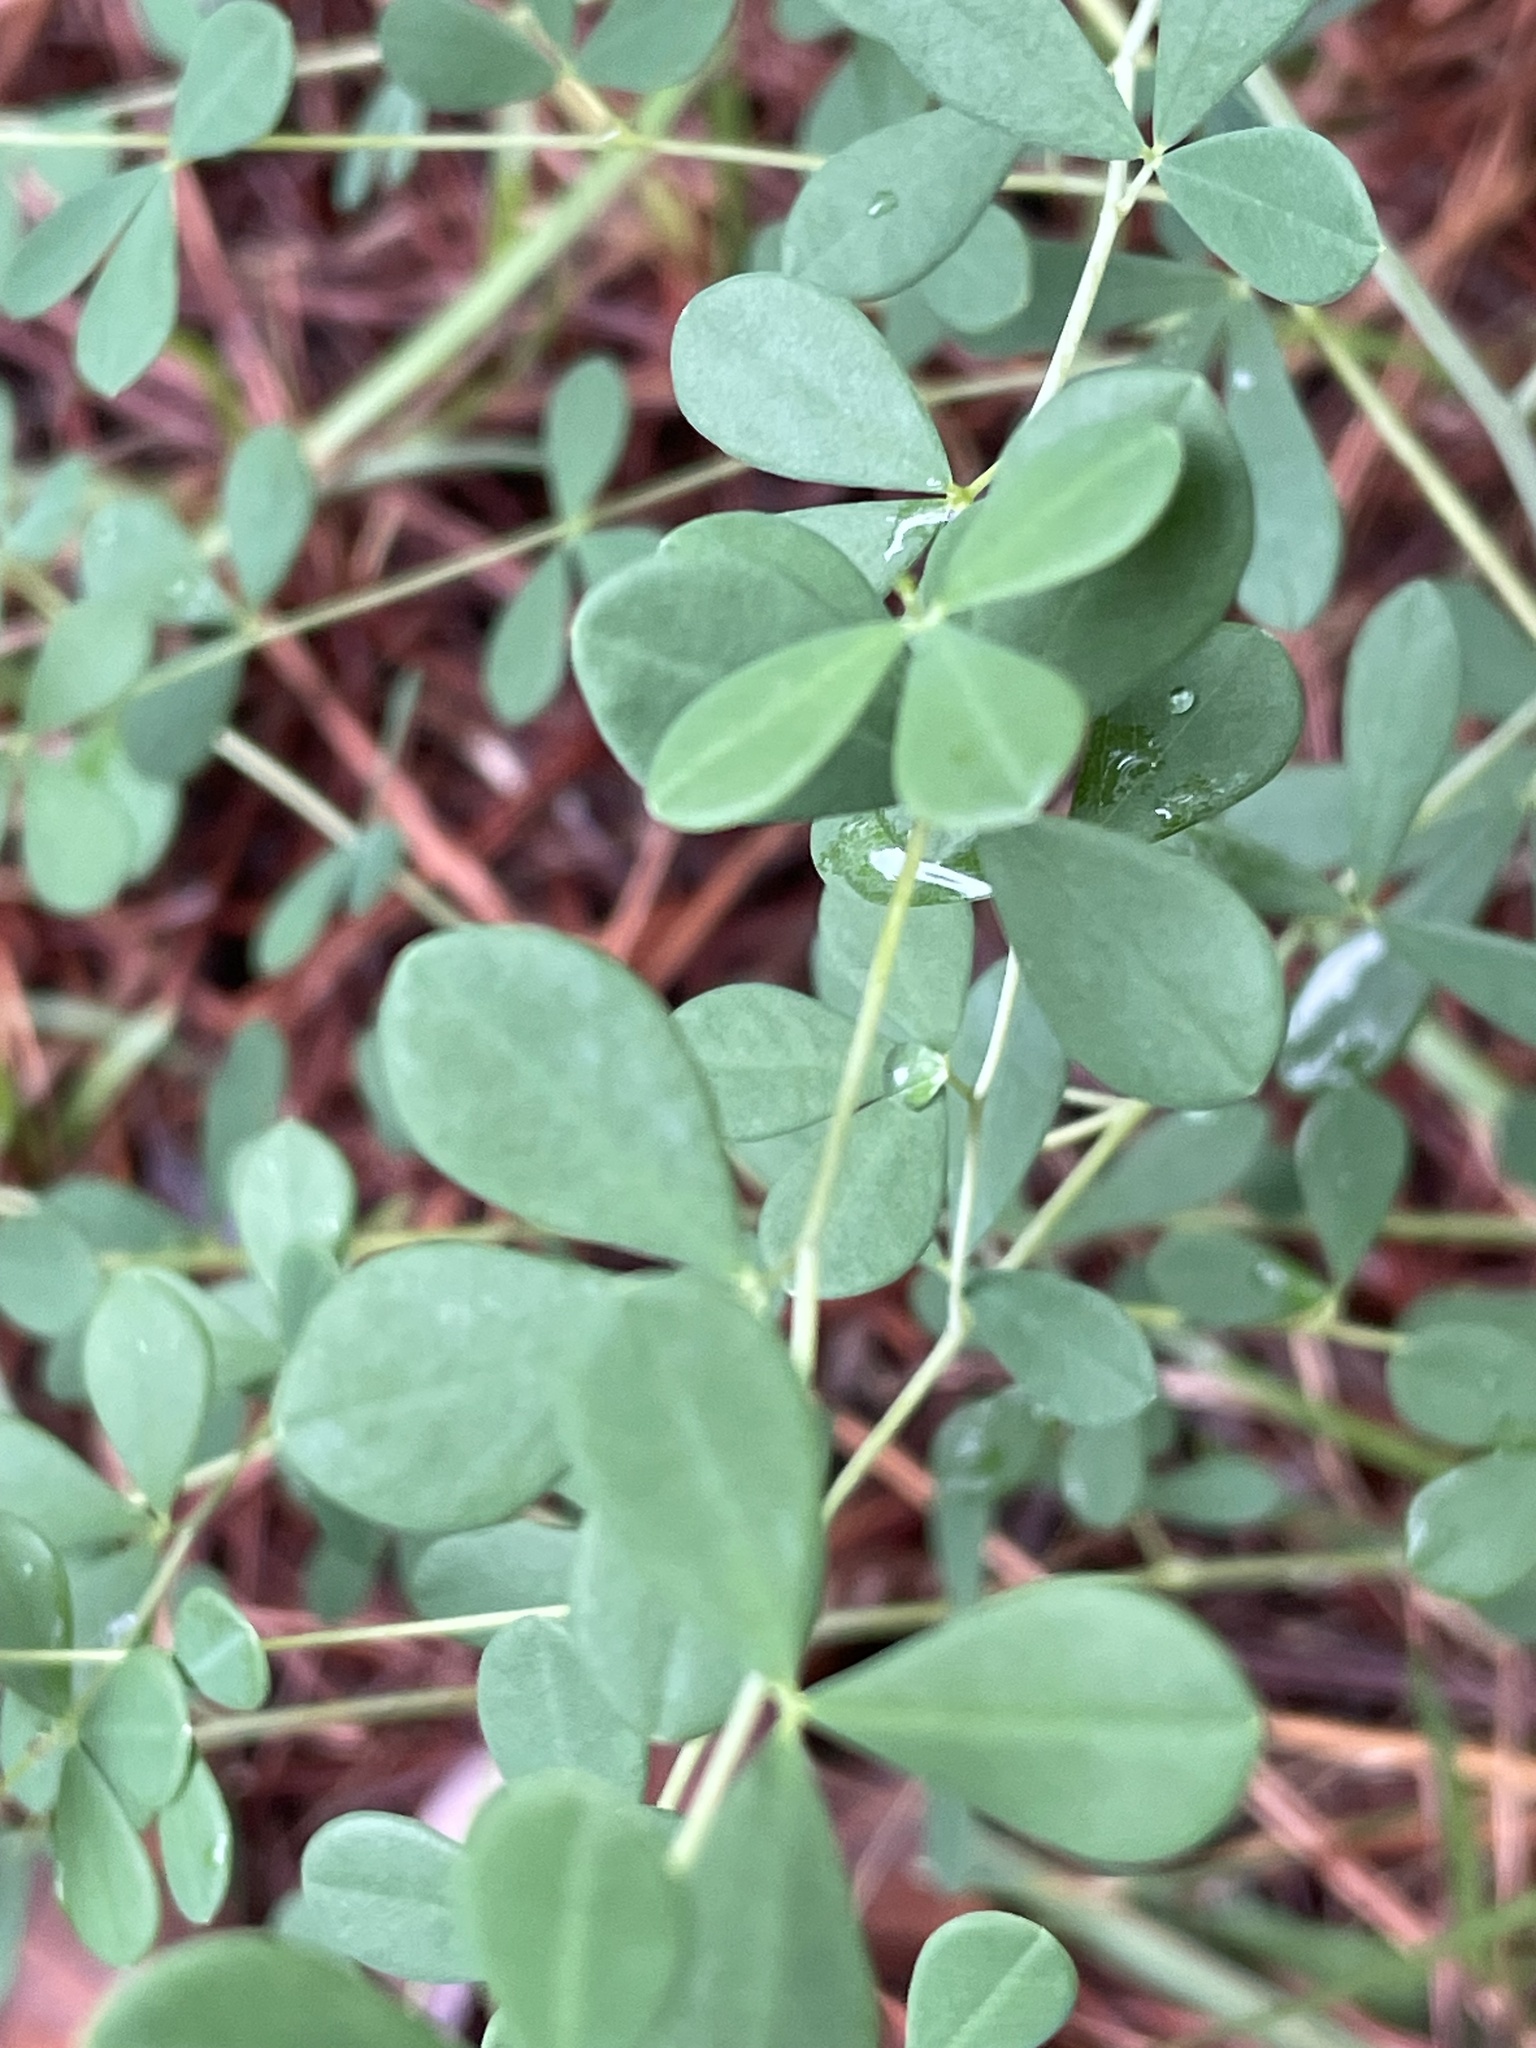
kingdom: Plantae
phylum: Tracheophyta
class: Magnoliopsida
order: Fabales
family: Fabaceae
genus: Baptisia
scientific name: Baptisia tinctoria
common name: Wild indigo
